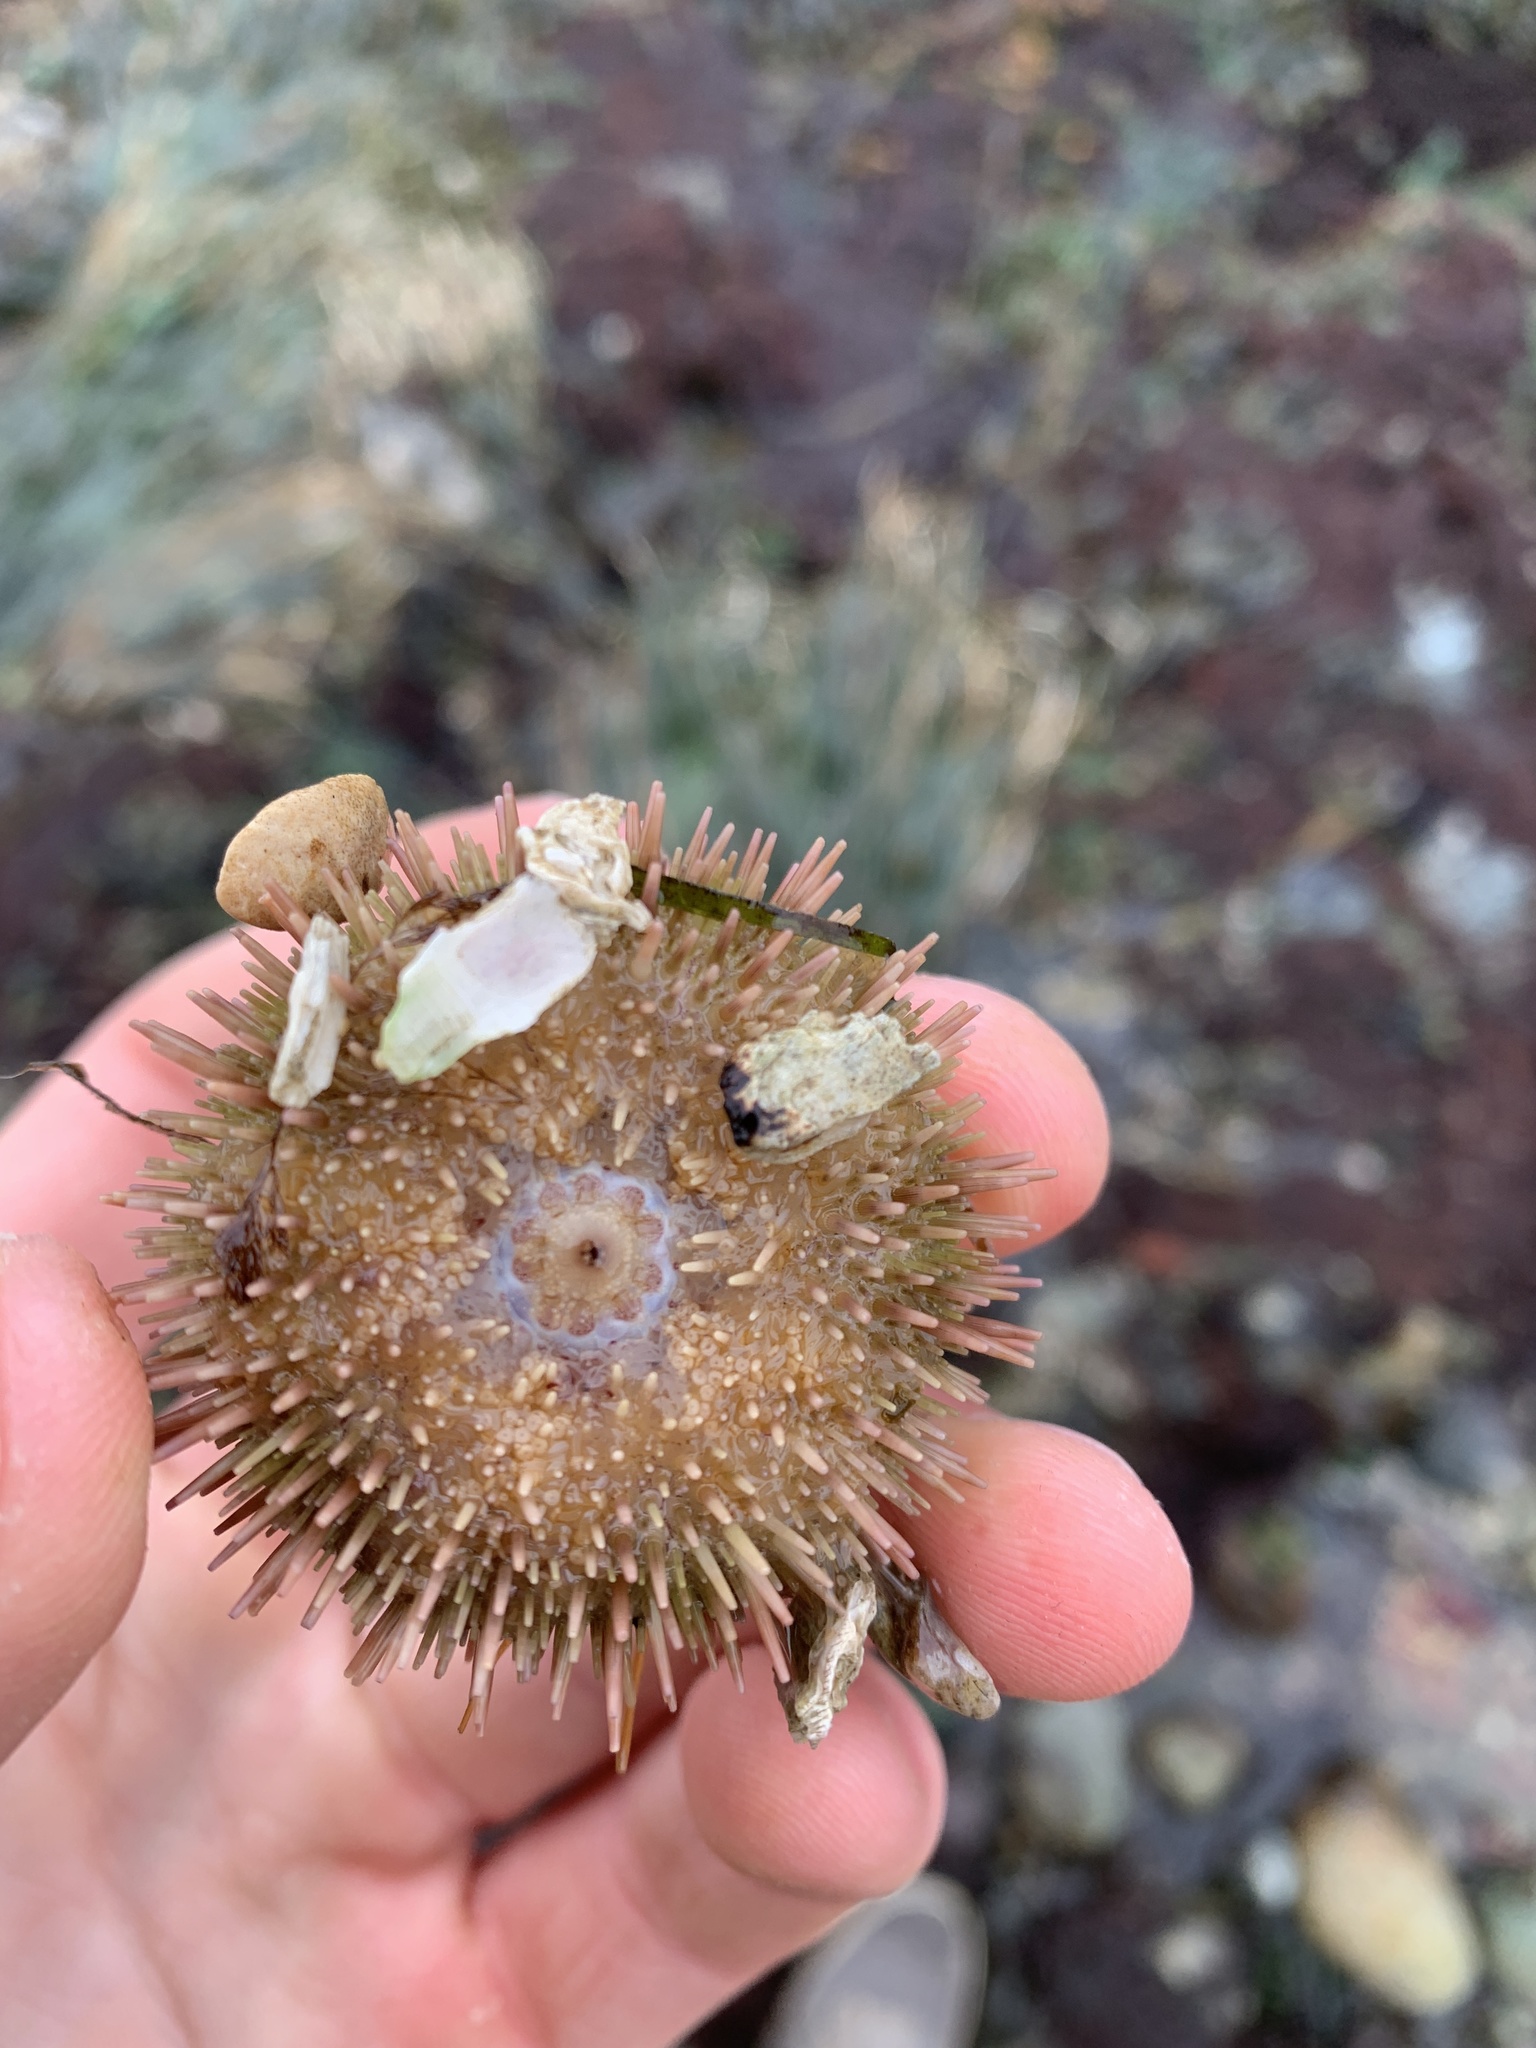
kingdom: Animalia
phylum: Echinodermata
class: Echinoidea
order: Camarodonta
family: Strongylocentrotidae
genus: Strongylocentrotus
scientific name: Strongylocentrotus droebachiensis
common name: Northern sea urchin
